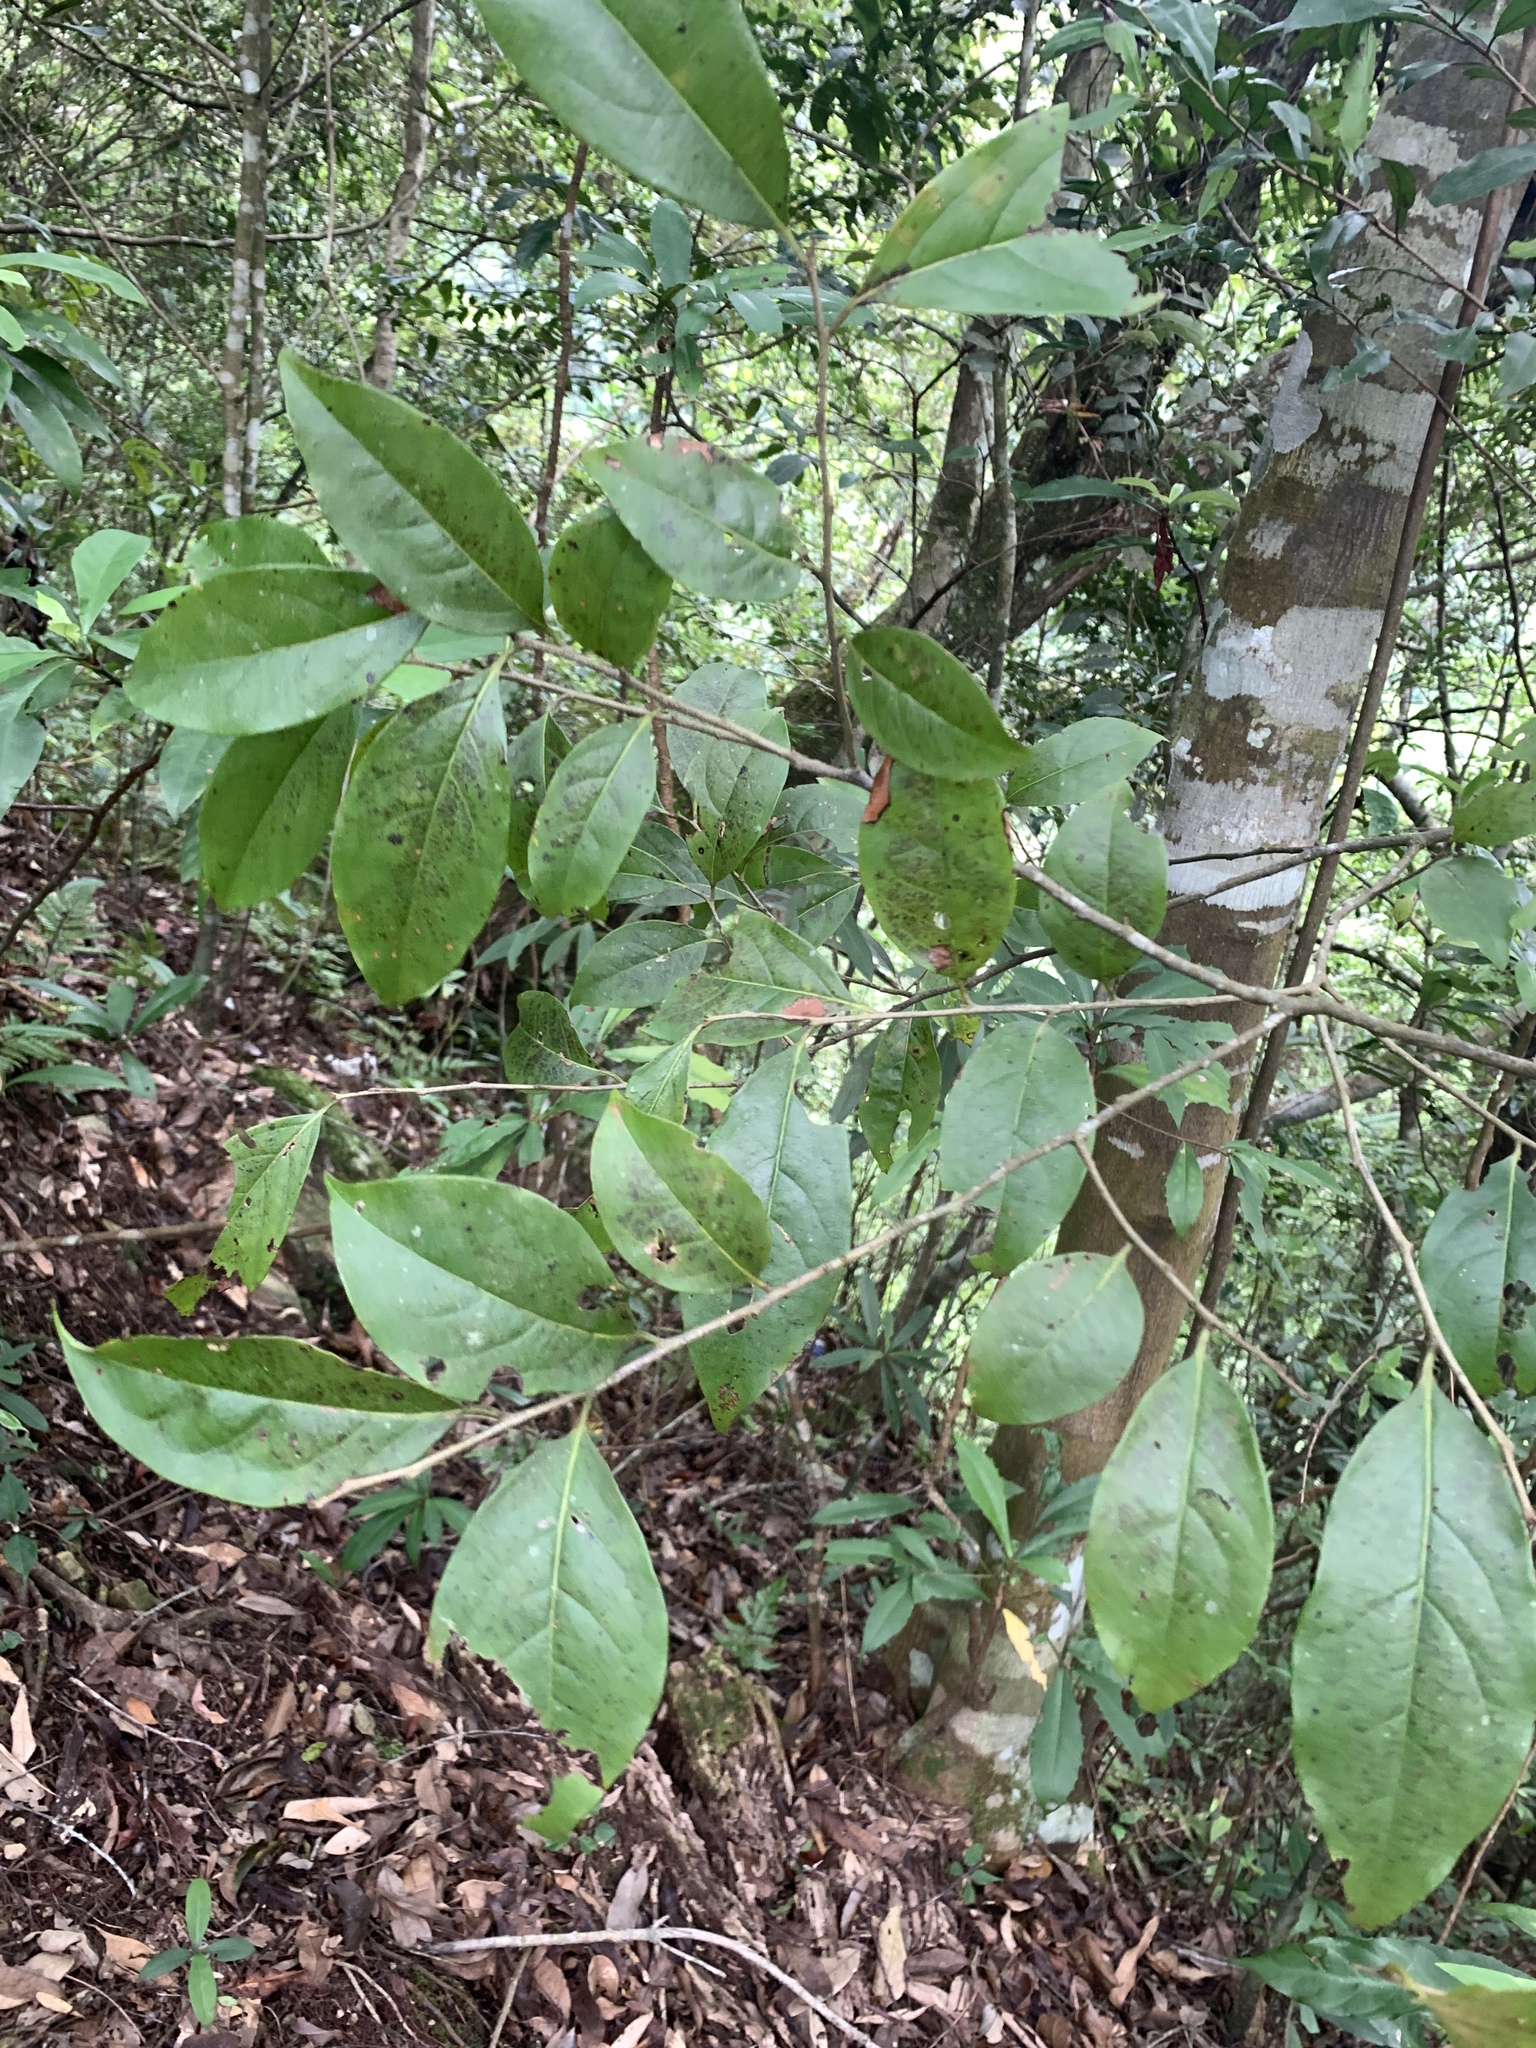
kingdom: Plantae
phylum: Tracheophyta
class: Magnoliopsida
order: Ericales
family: Ebenaceae
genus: Diospyros
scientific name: Diospyros morrisiana
